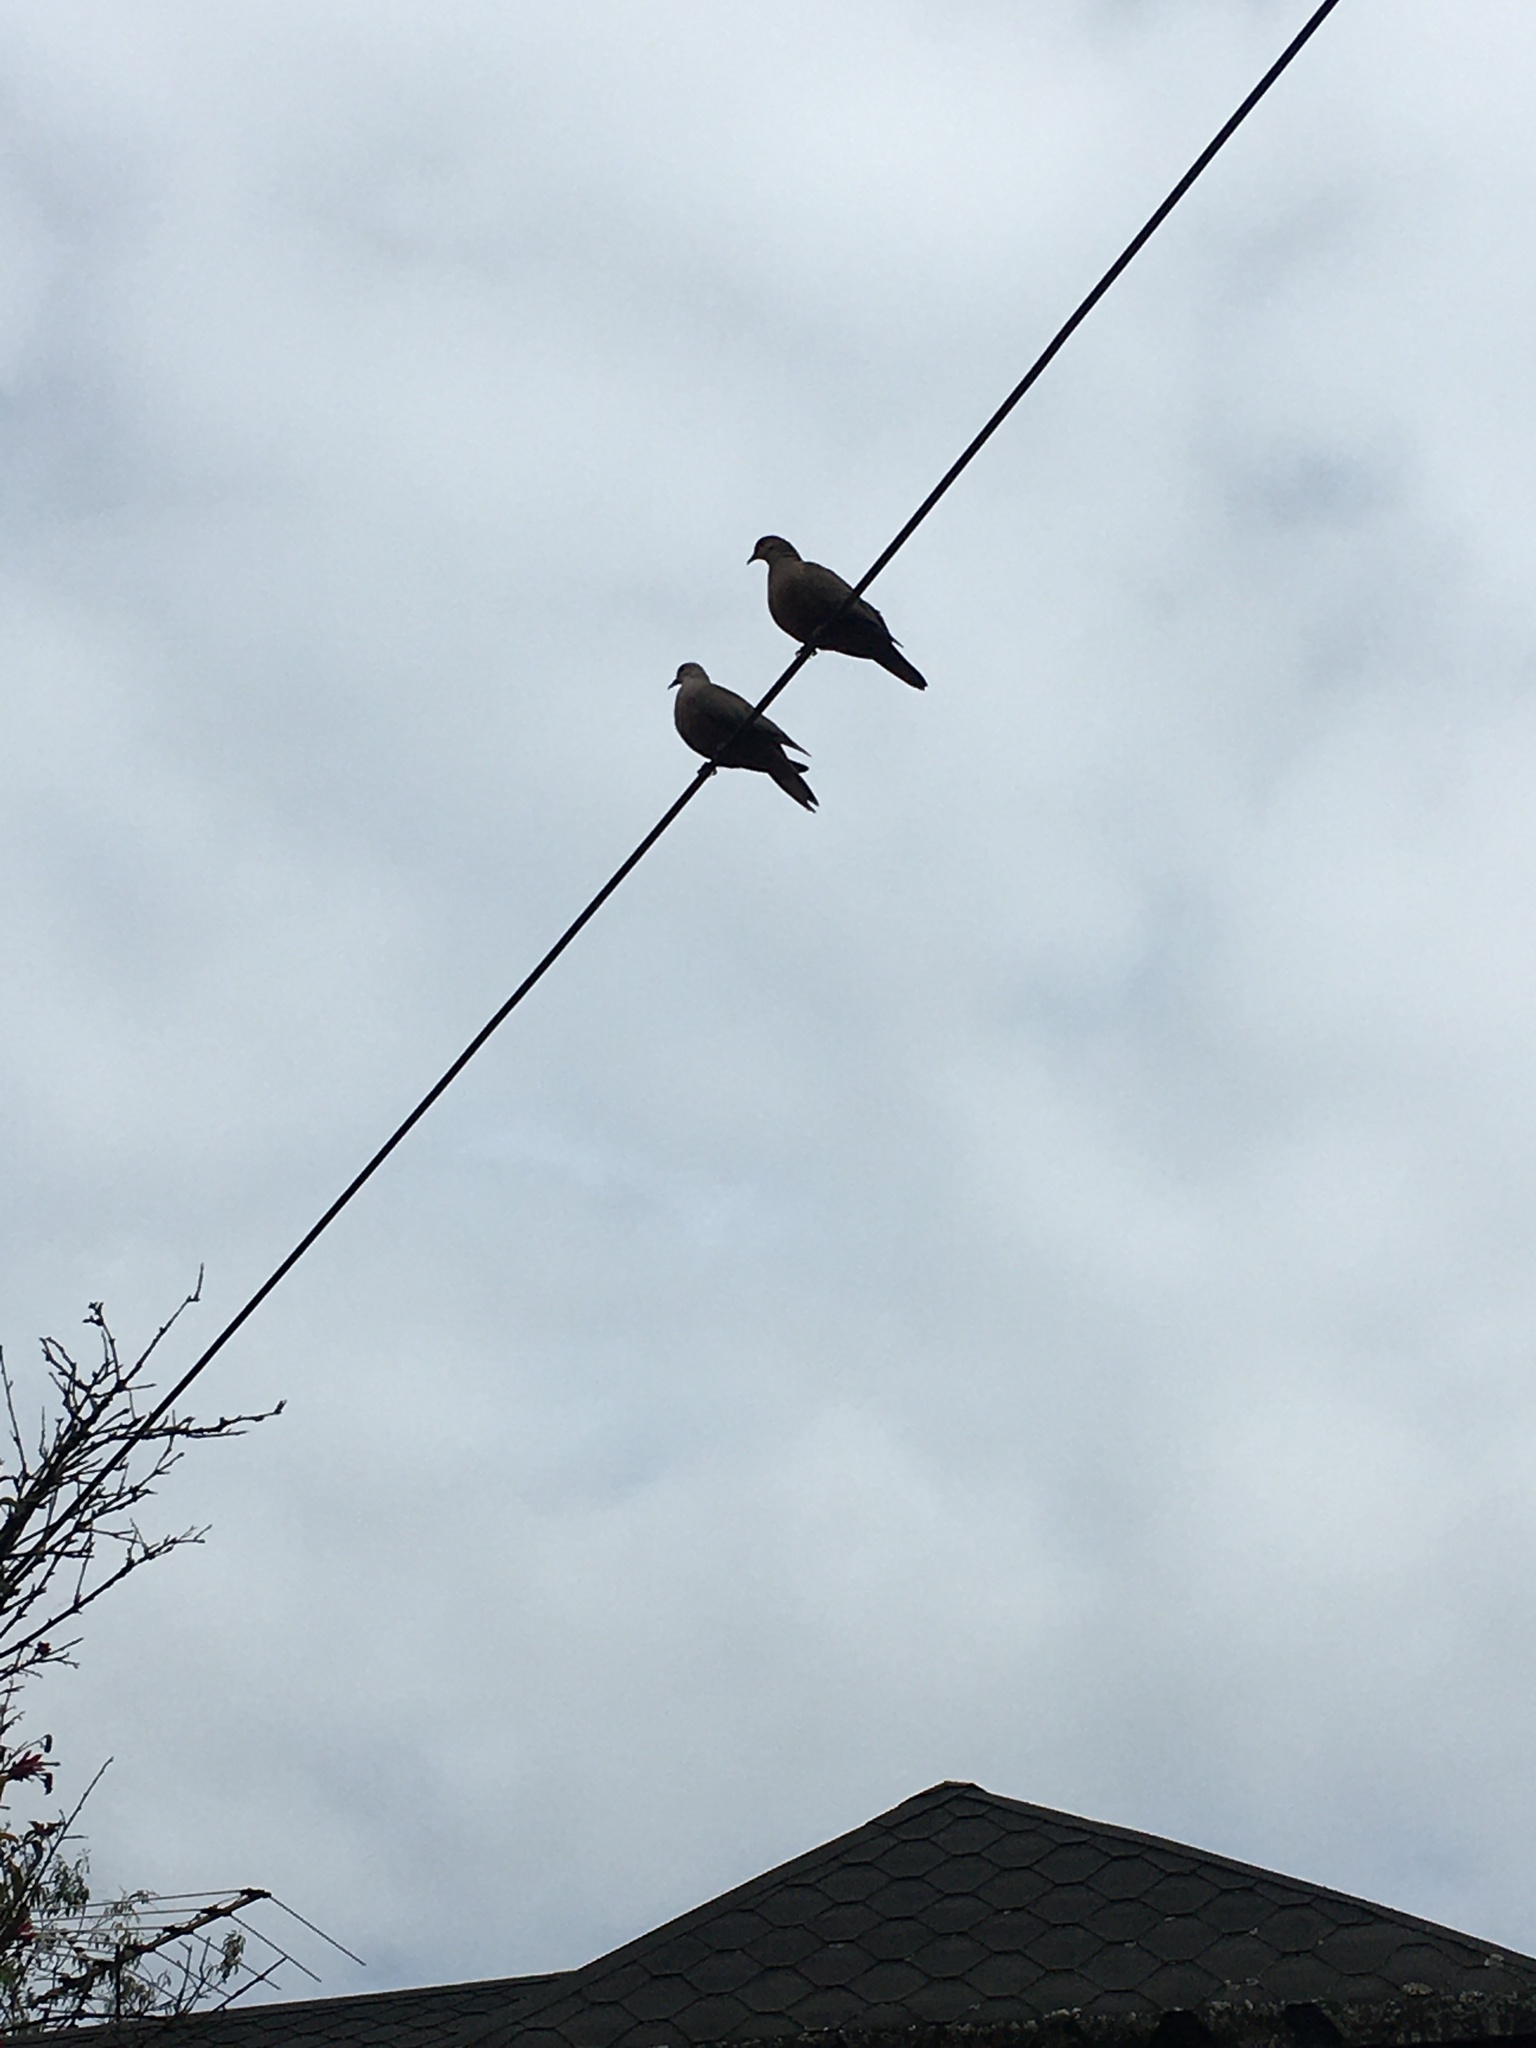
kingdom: Animalia
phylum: Chordata
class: Aves
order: Columbiformes
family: Columbidae
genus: Zenaida
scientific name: Zenaida auriculata
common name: Eared dove
